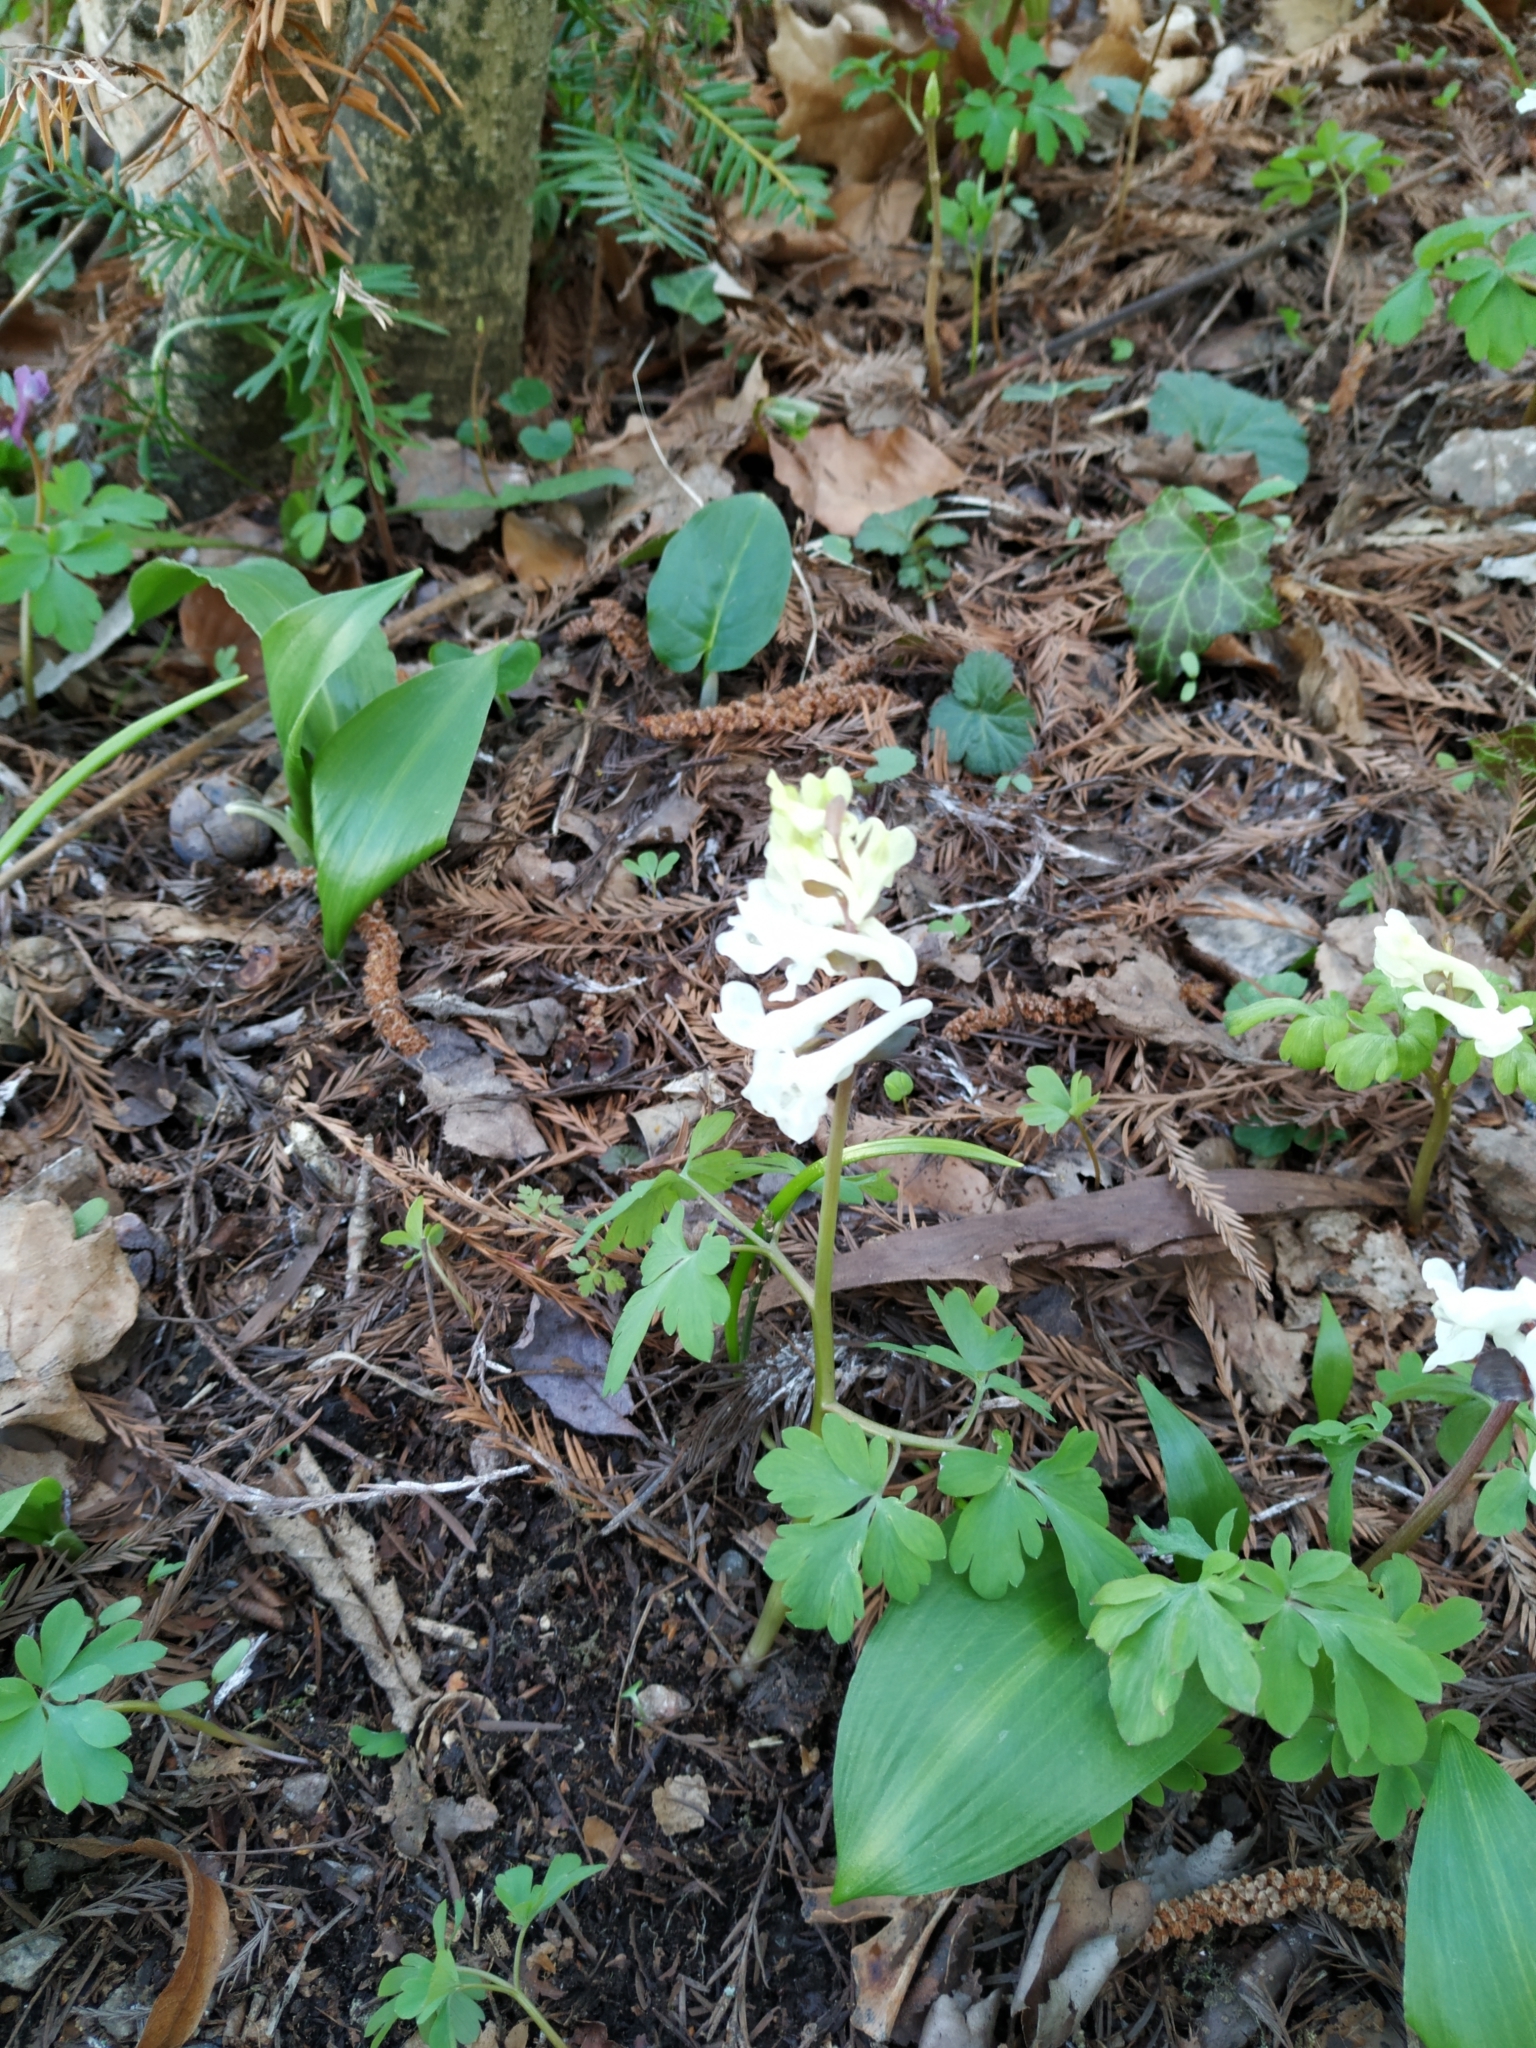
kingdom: Plantae
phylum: Tracheophyta
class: Magnoliopsida
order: Ranunculales
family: Papaveraceae
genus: Corydalis
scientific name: Corydalis cava
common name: Hollowroot
